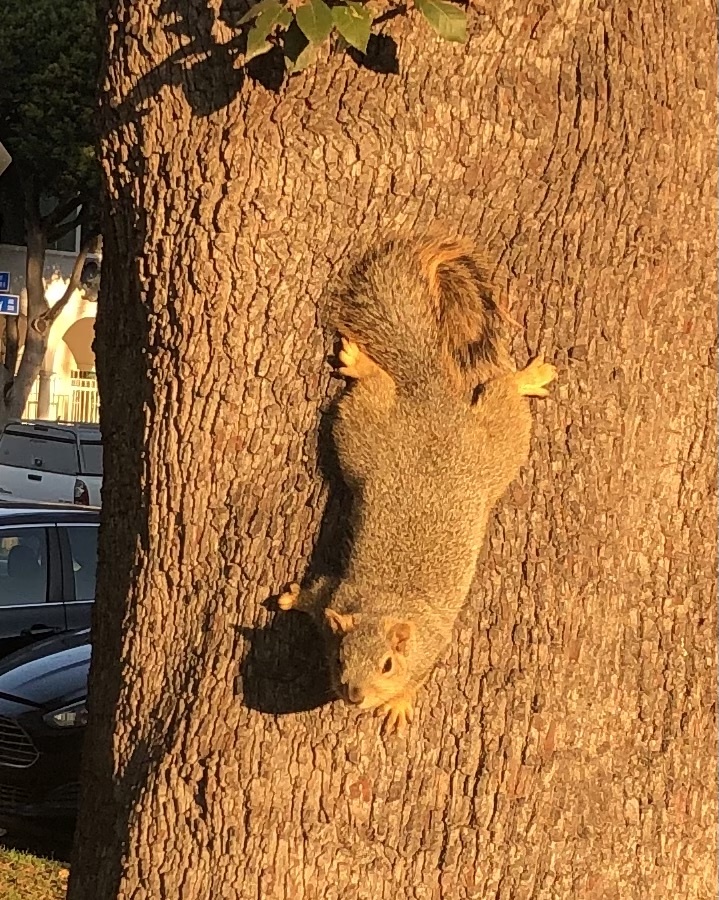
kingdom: Animalia
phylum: Chordata
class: Mammalia
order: Rodentia
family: Sciuridae
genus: Sciurus
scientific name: Sciurus niger
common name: Fox squirrel
